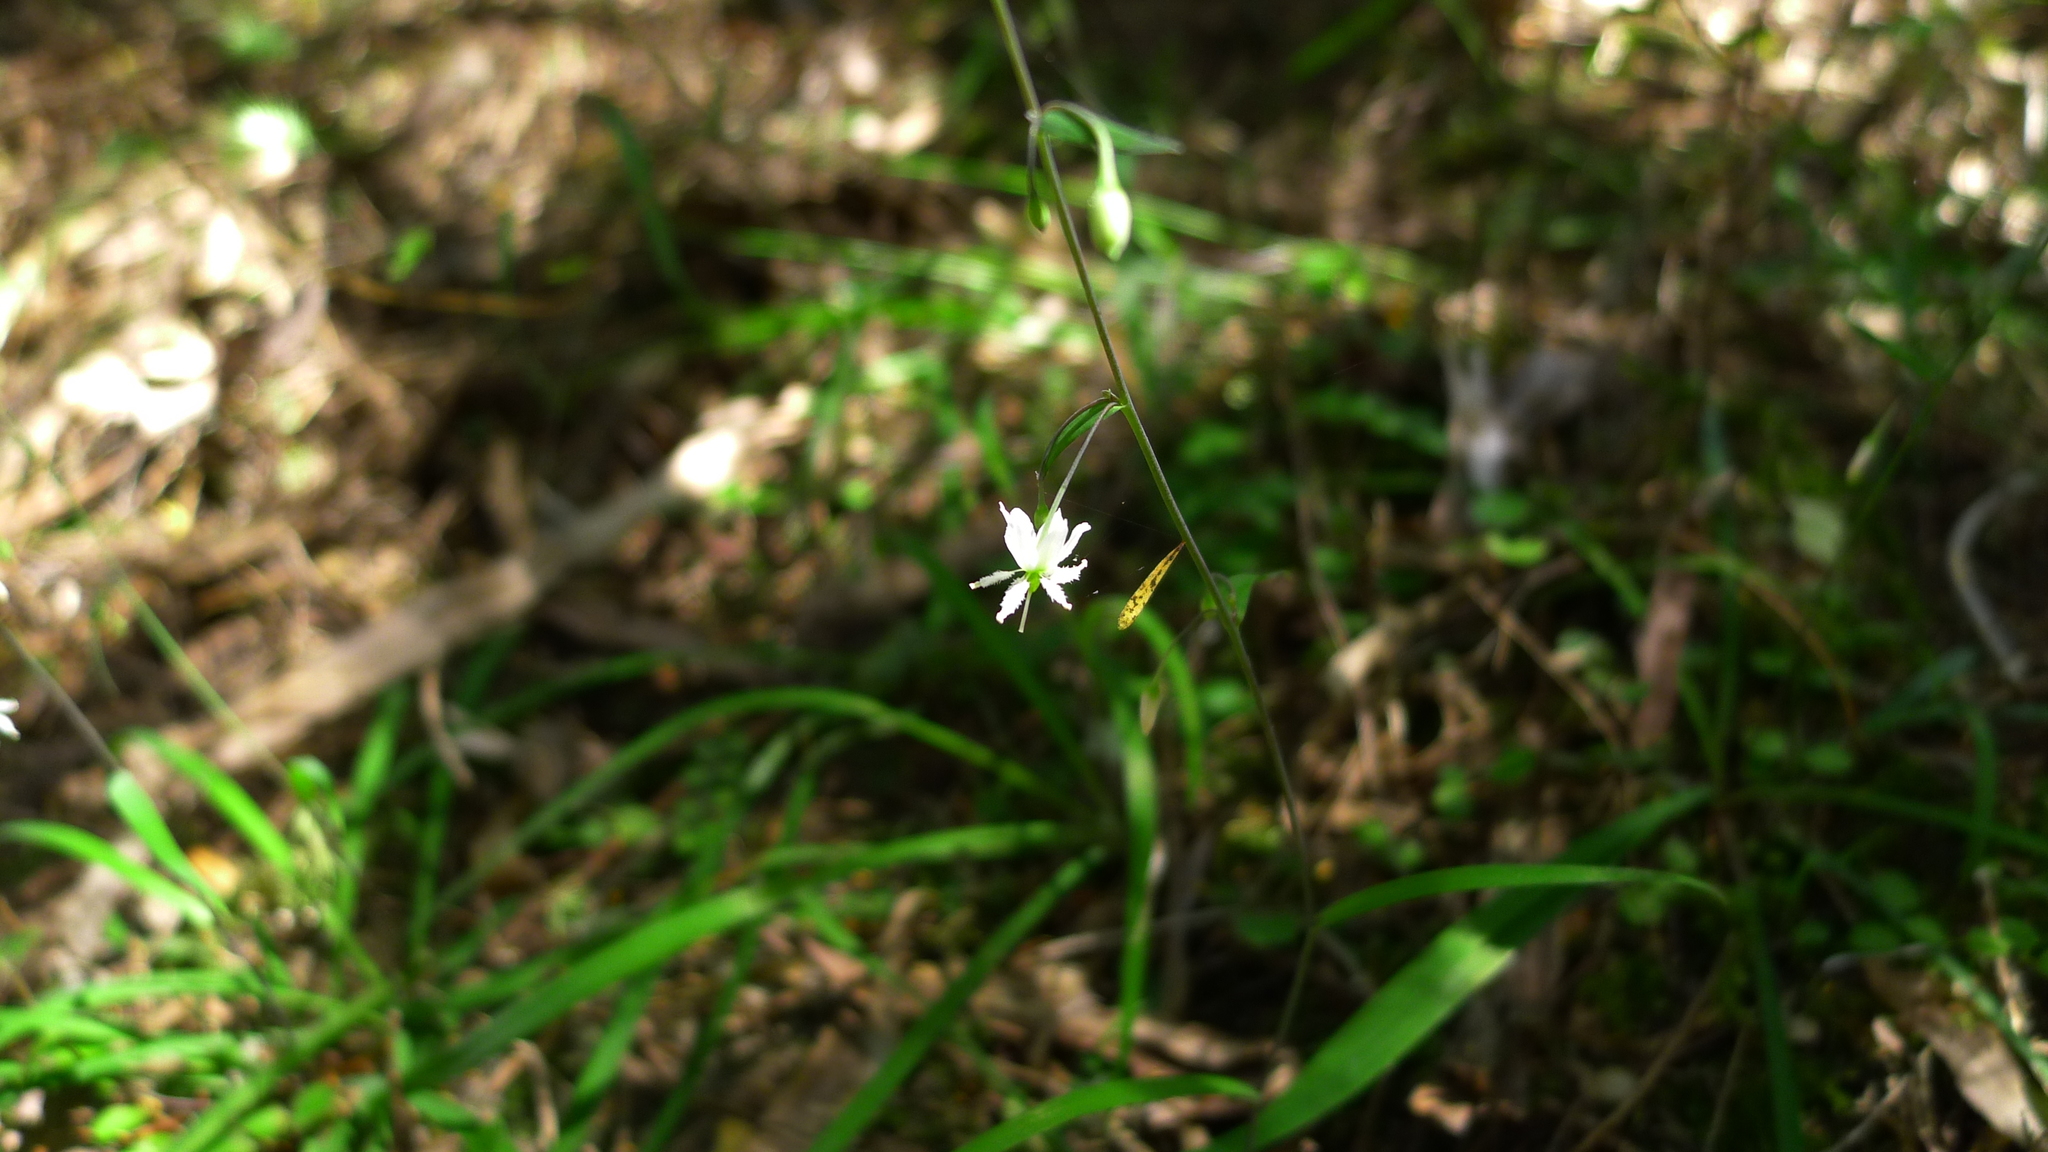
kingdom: Plantae
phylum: Tracheophyta
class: Liliopsida
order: Asparagales
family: Asparagaceae
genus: Arthropodium
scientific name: Arthropodium candidum
